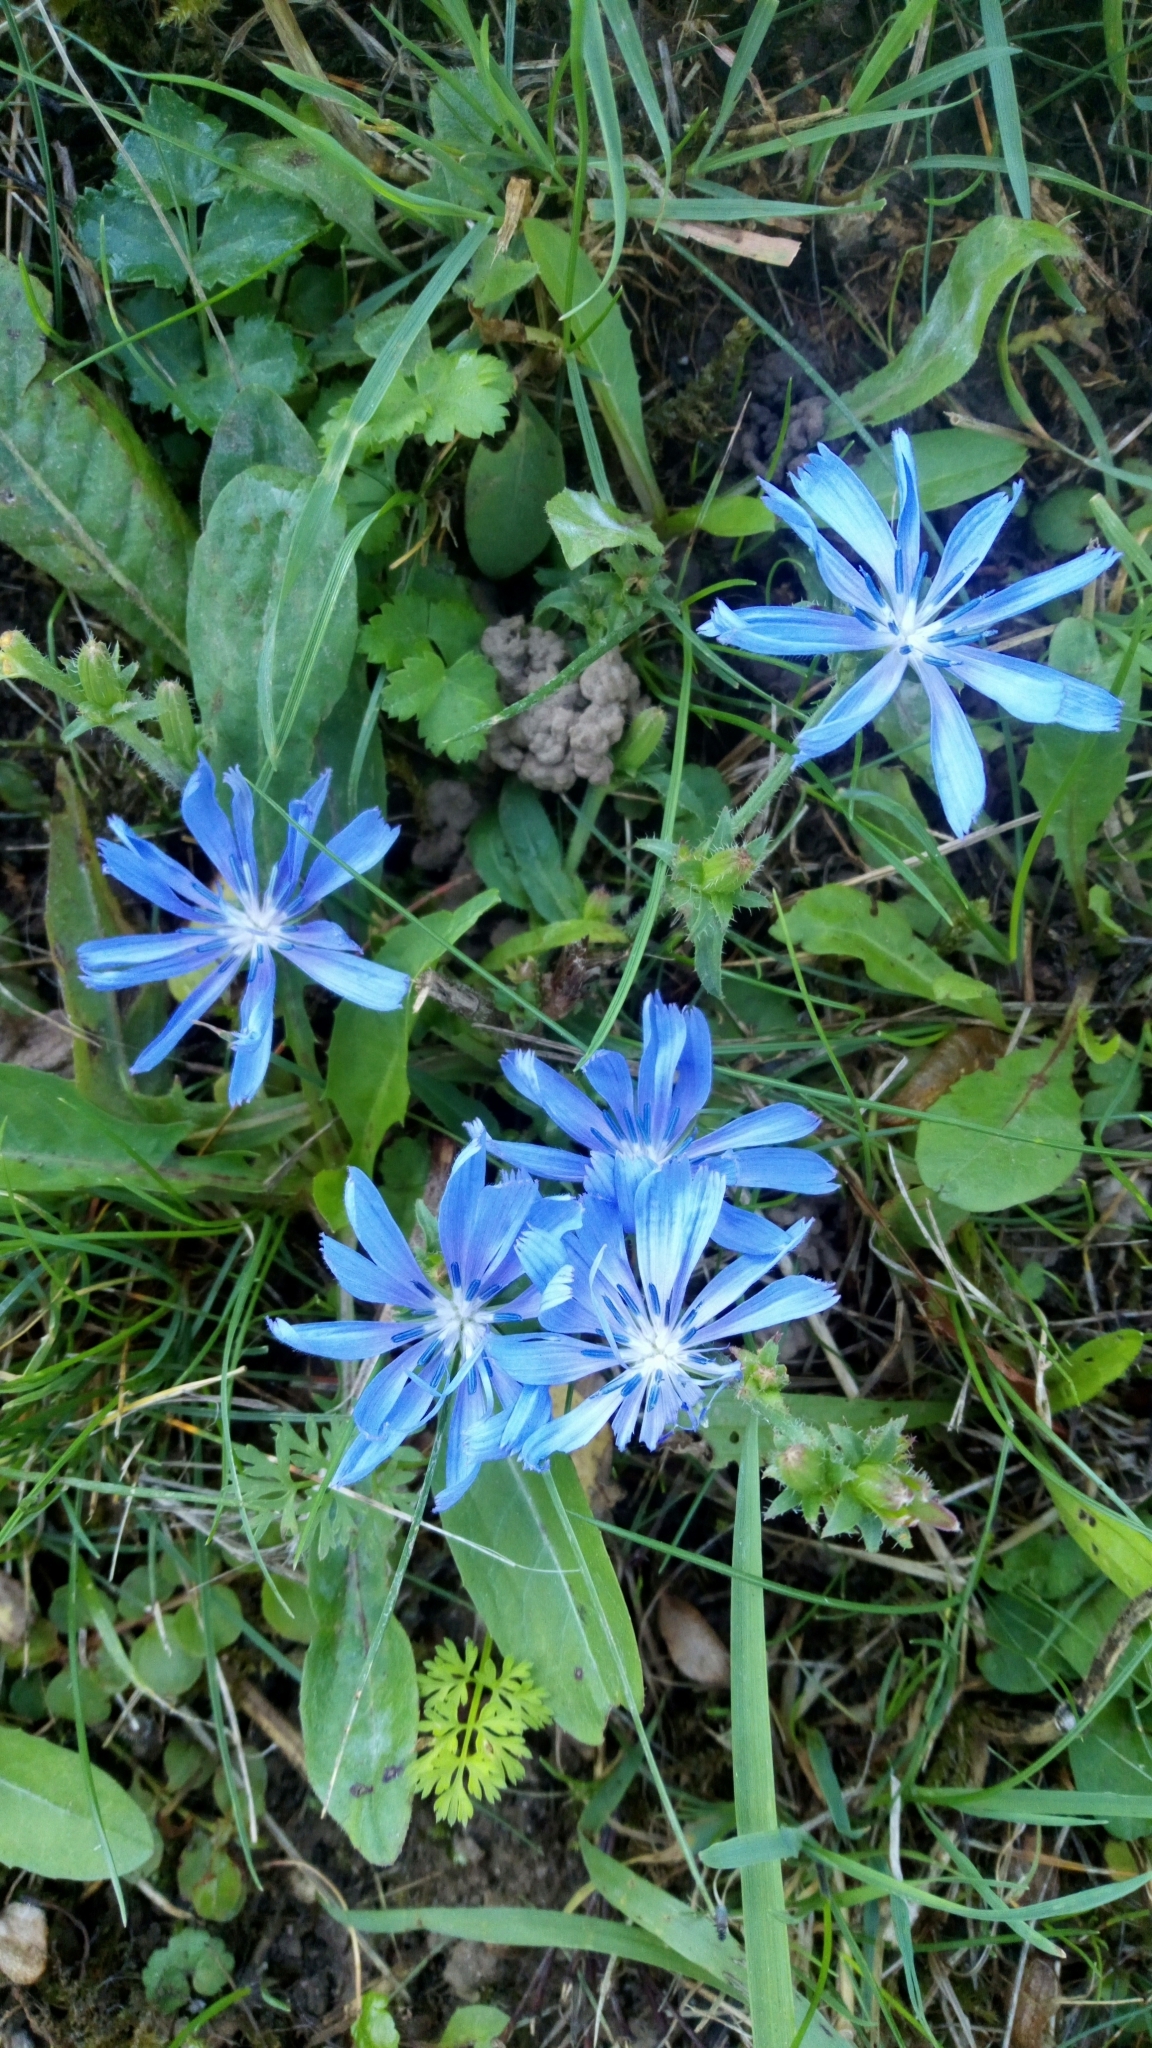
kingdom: Plantae
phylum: Tracheophyta
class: Magnoliopsida
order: Asterales
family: Asteraceae
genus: Cichorium
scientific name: Cichorium intybus
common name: Chicory
